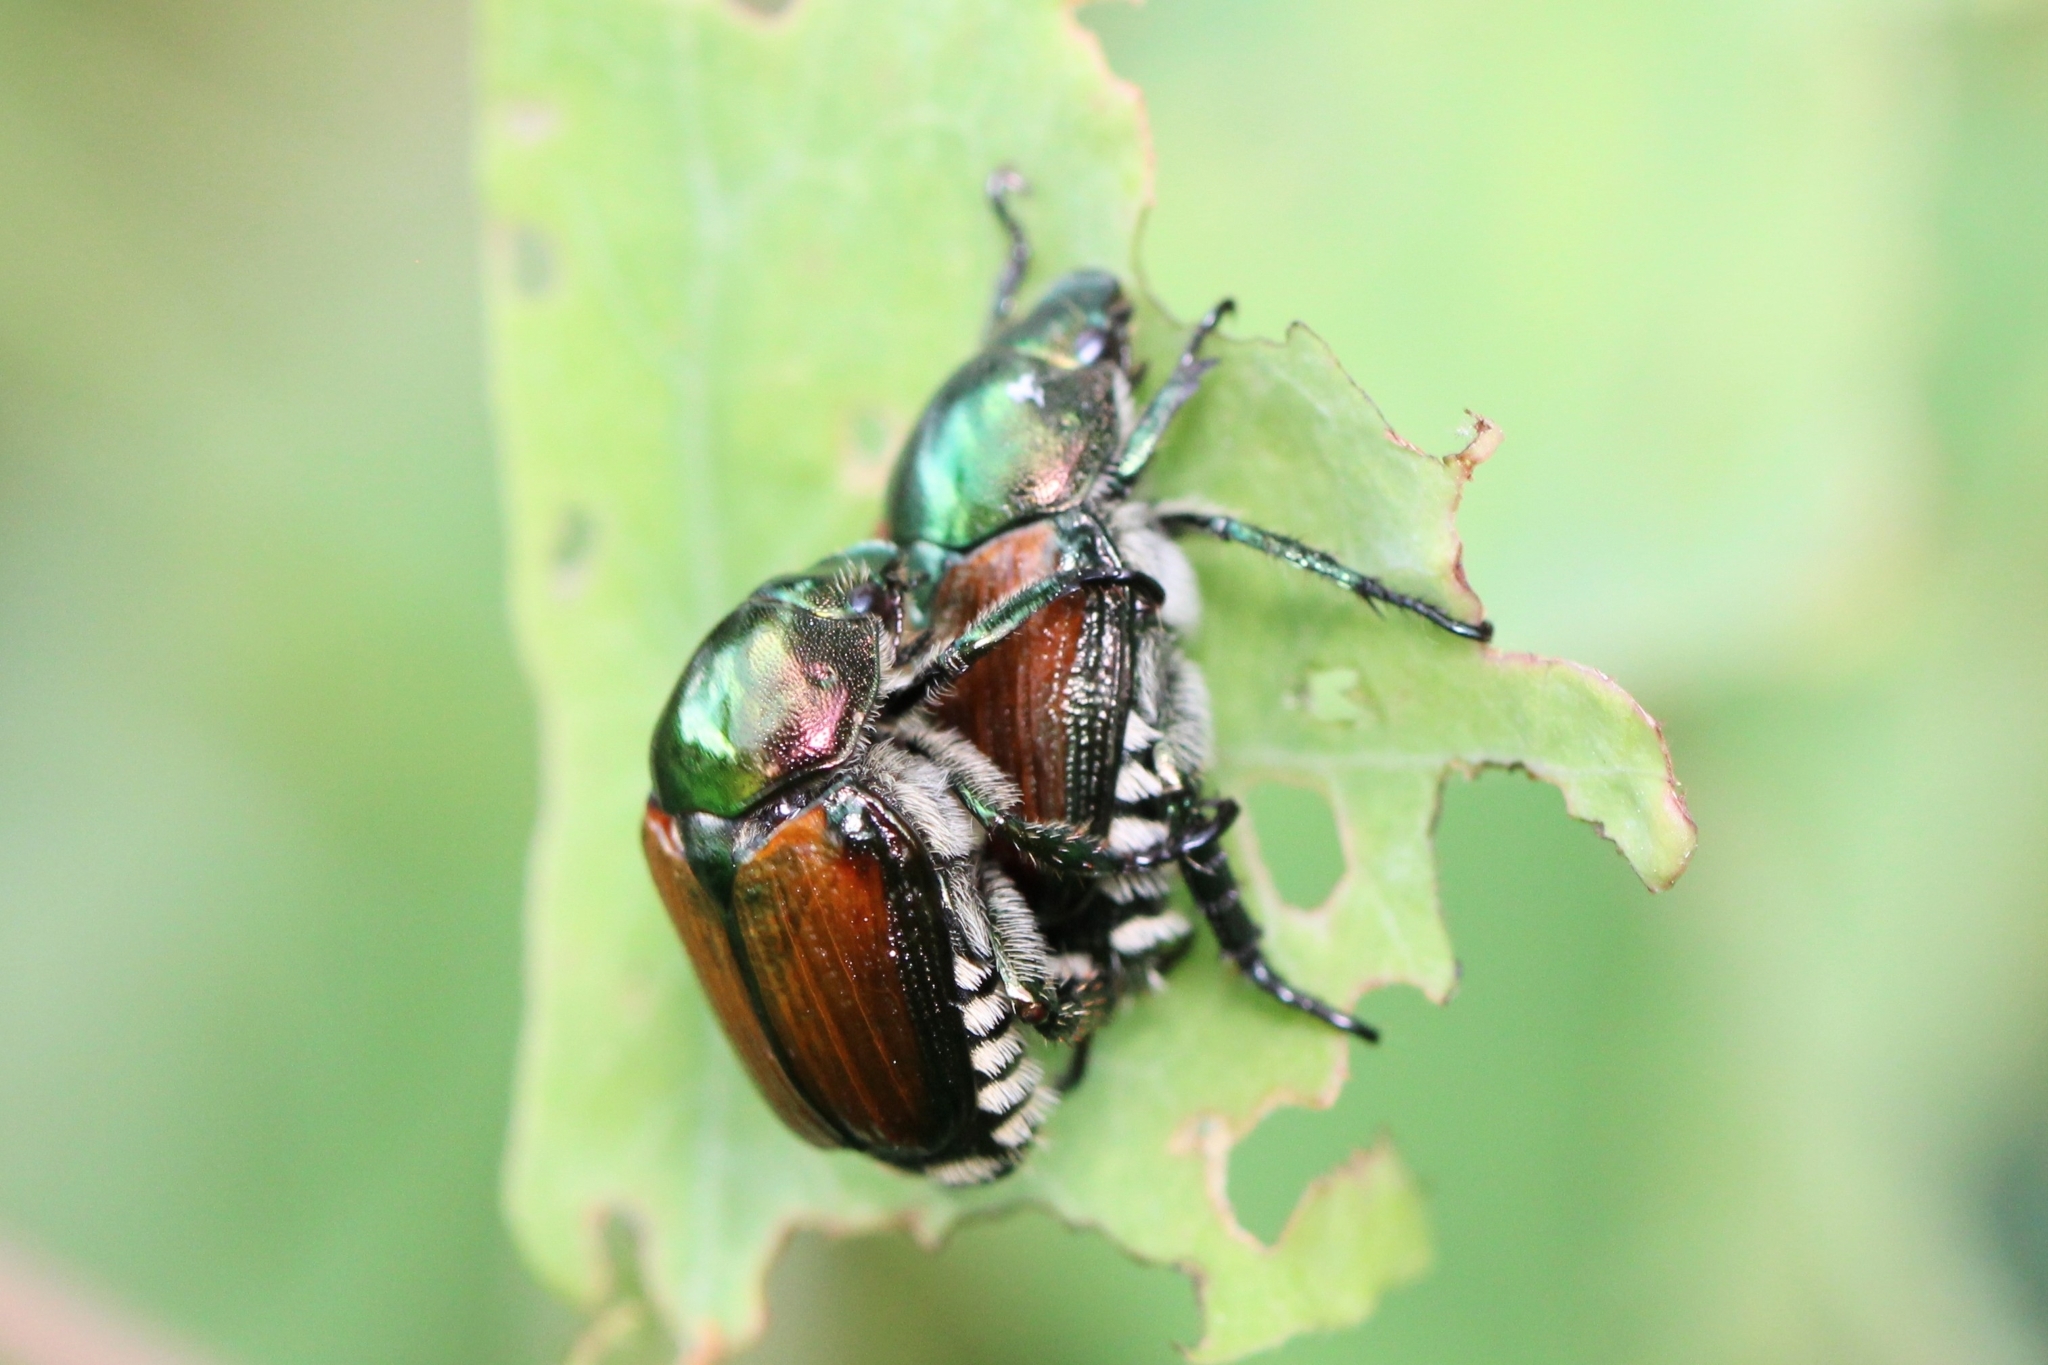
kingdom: Animalia
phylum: Arthropoda
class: Insecta
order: Coleoptera
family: Scarabaeidae
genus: Popillia
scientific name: Popillia japonica
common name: Japanese beetle
